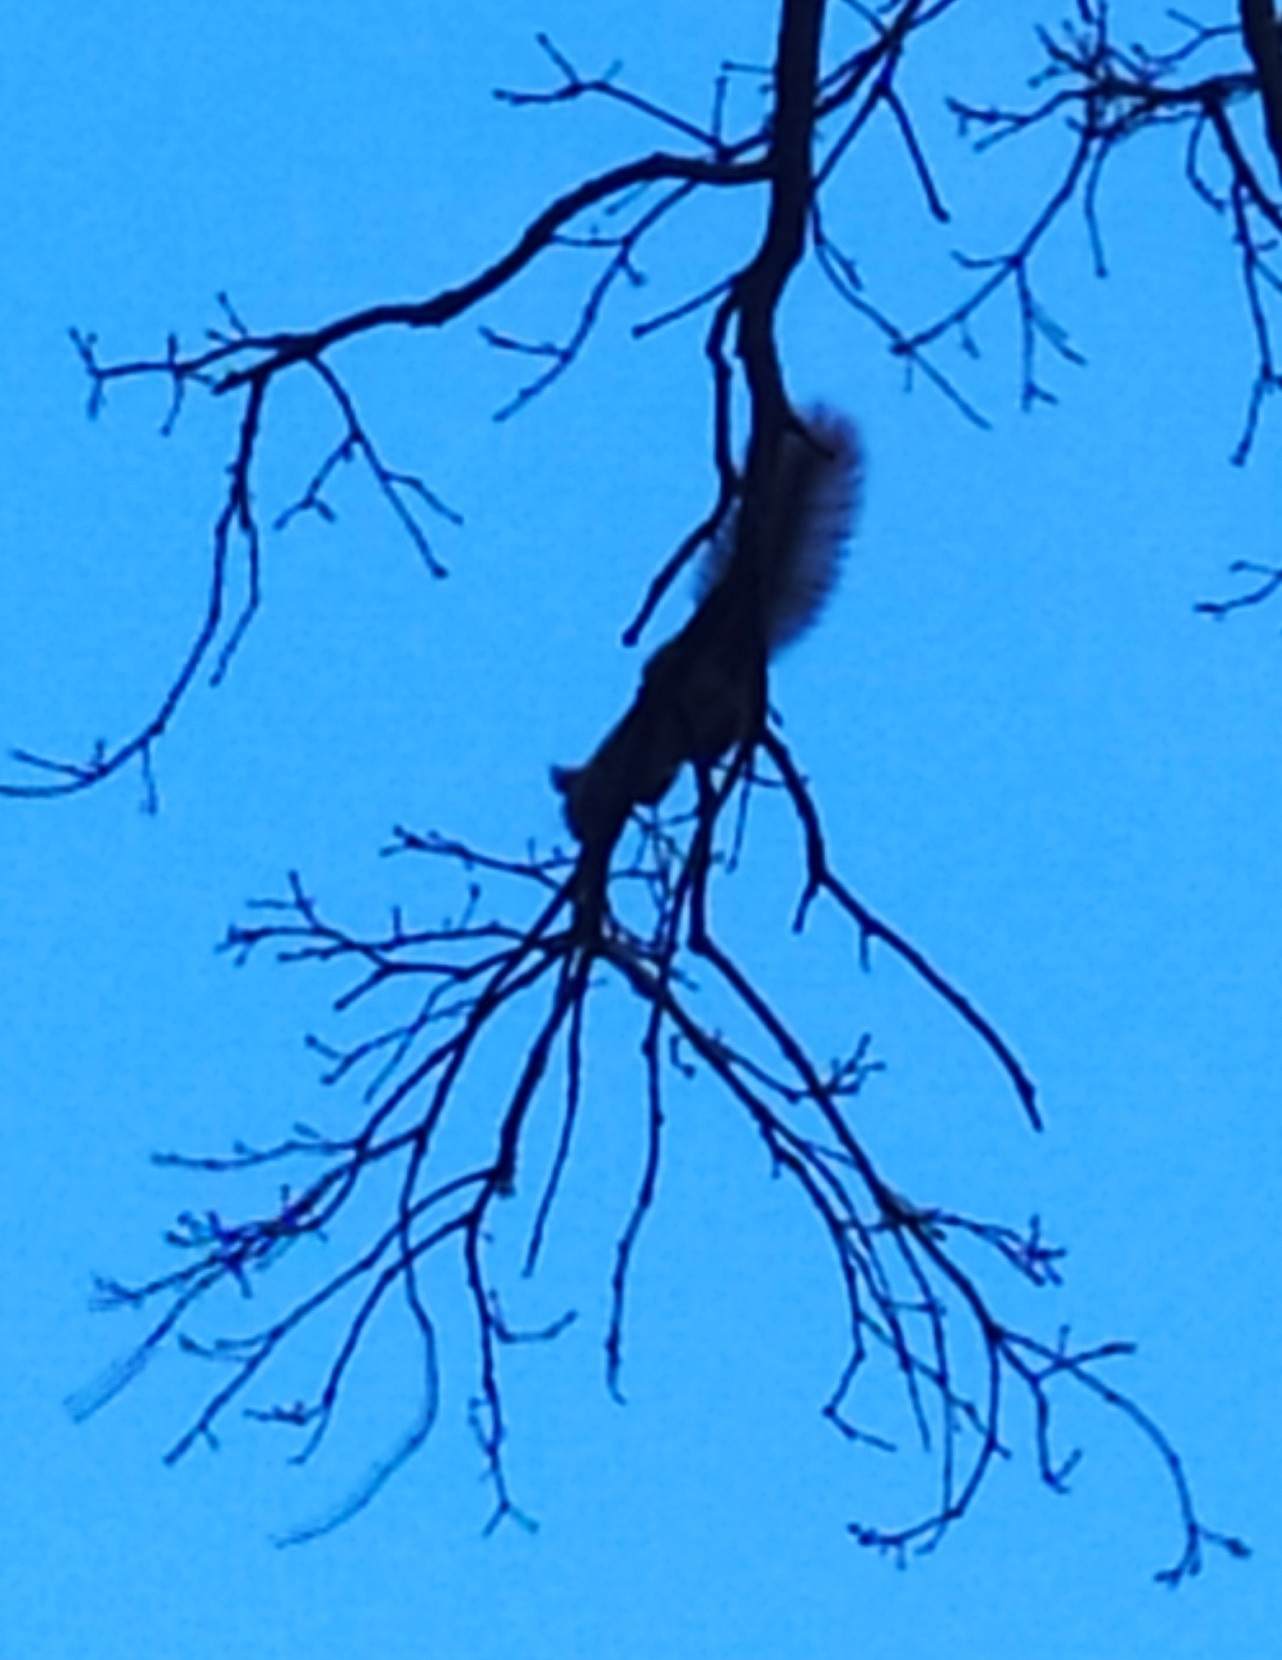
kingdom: Animalia
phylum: Chordata
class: Mammalia
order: Rodentia
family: Sciuridae
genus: Sciurus
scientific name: Sciurus vulgaris
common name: Eurasian red squirrel
